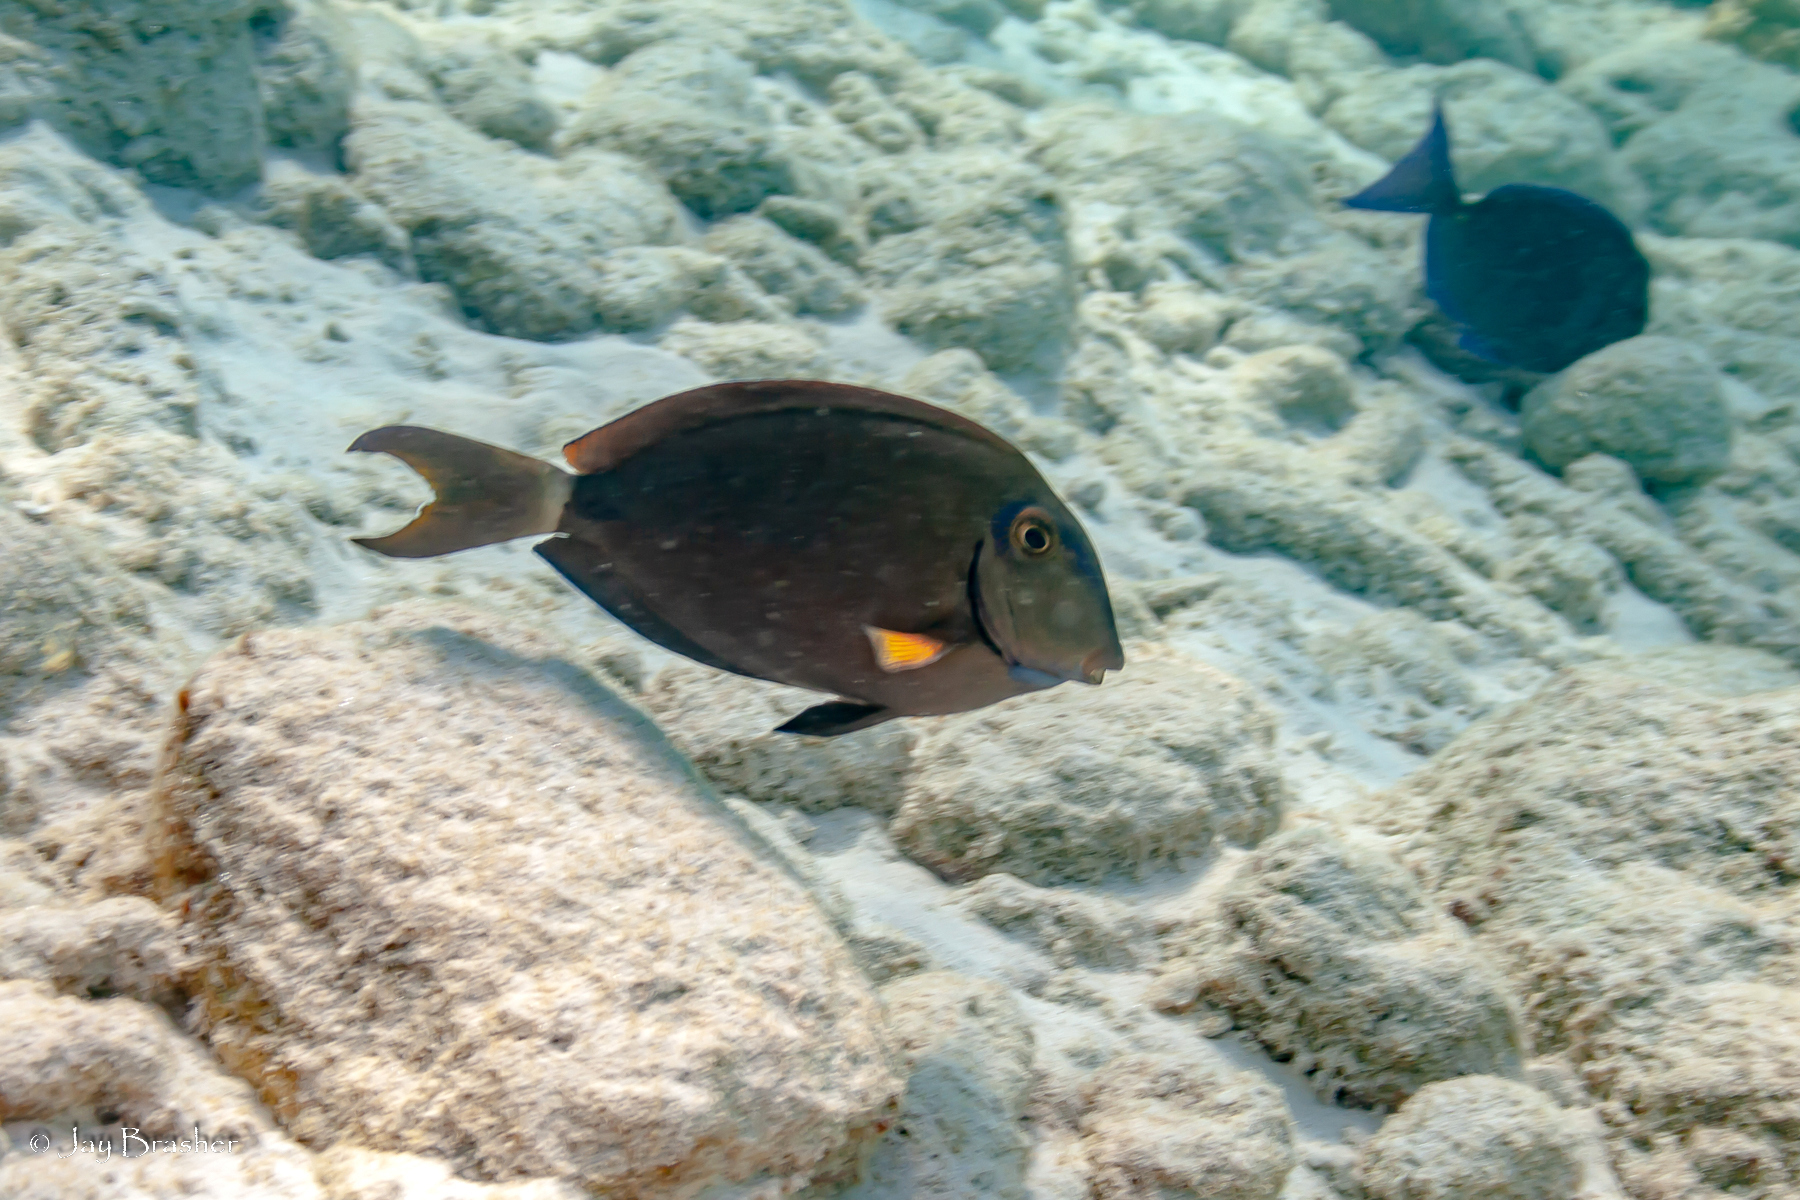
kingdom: Animalia
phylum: Chordata
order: Perciformes
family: Acanthuridae
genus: Acanthurus
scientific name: Acanthurus bahianus
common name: Ocean surgeon
